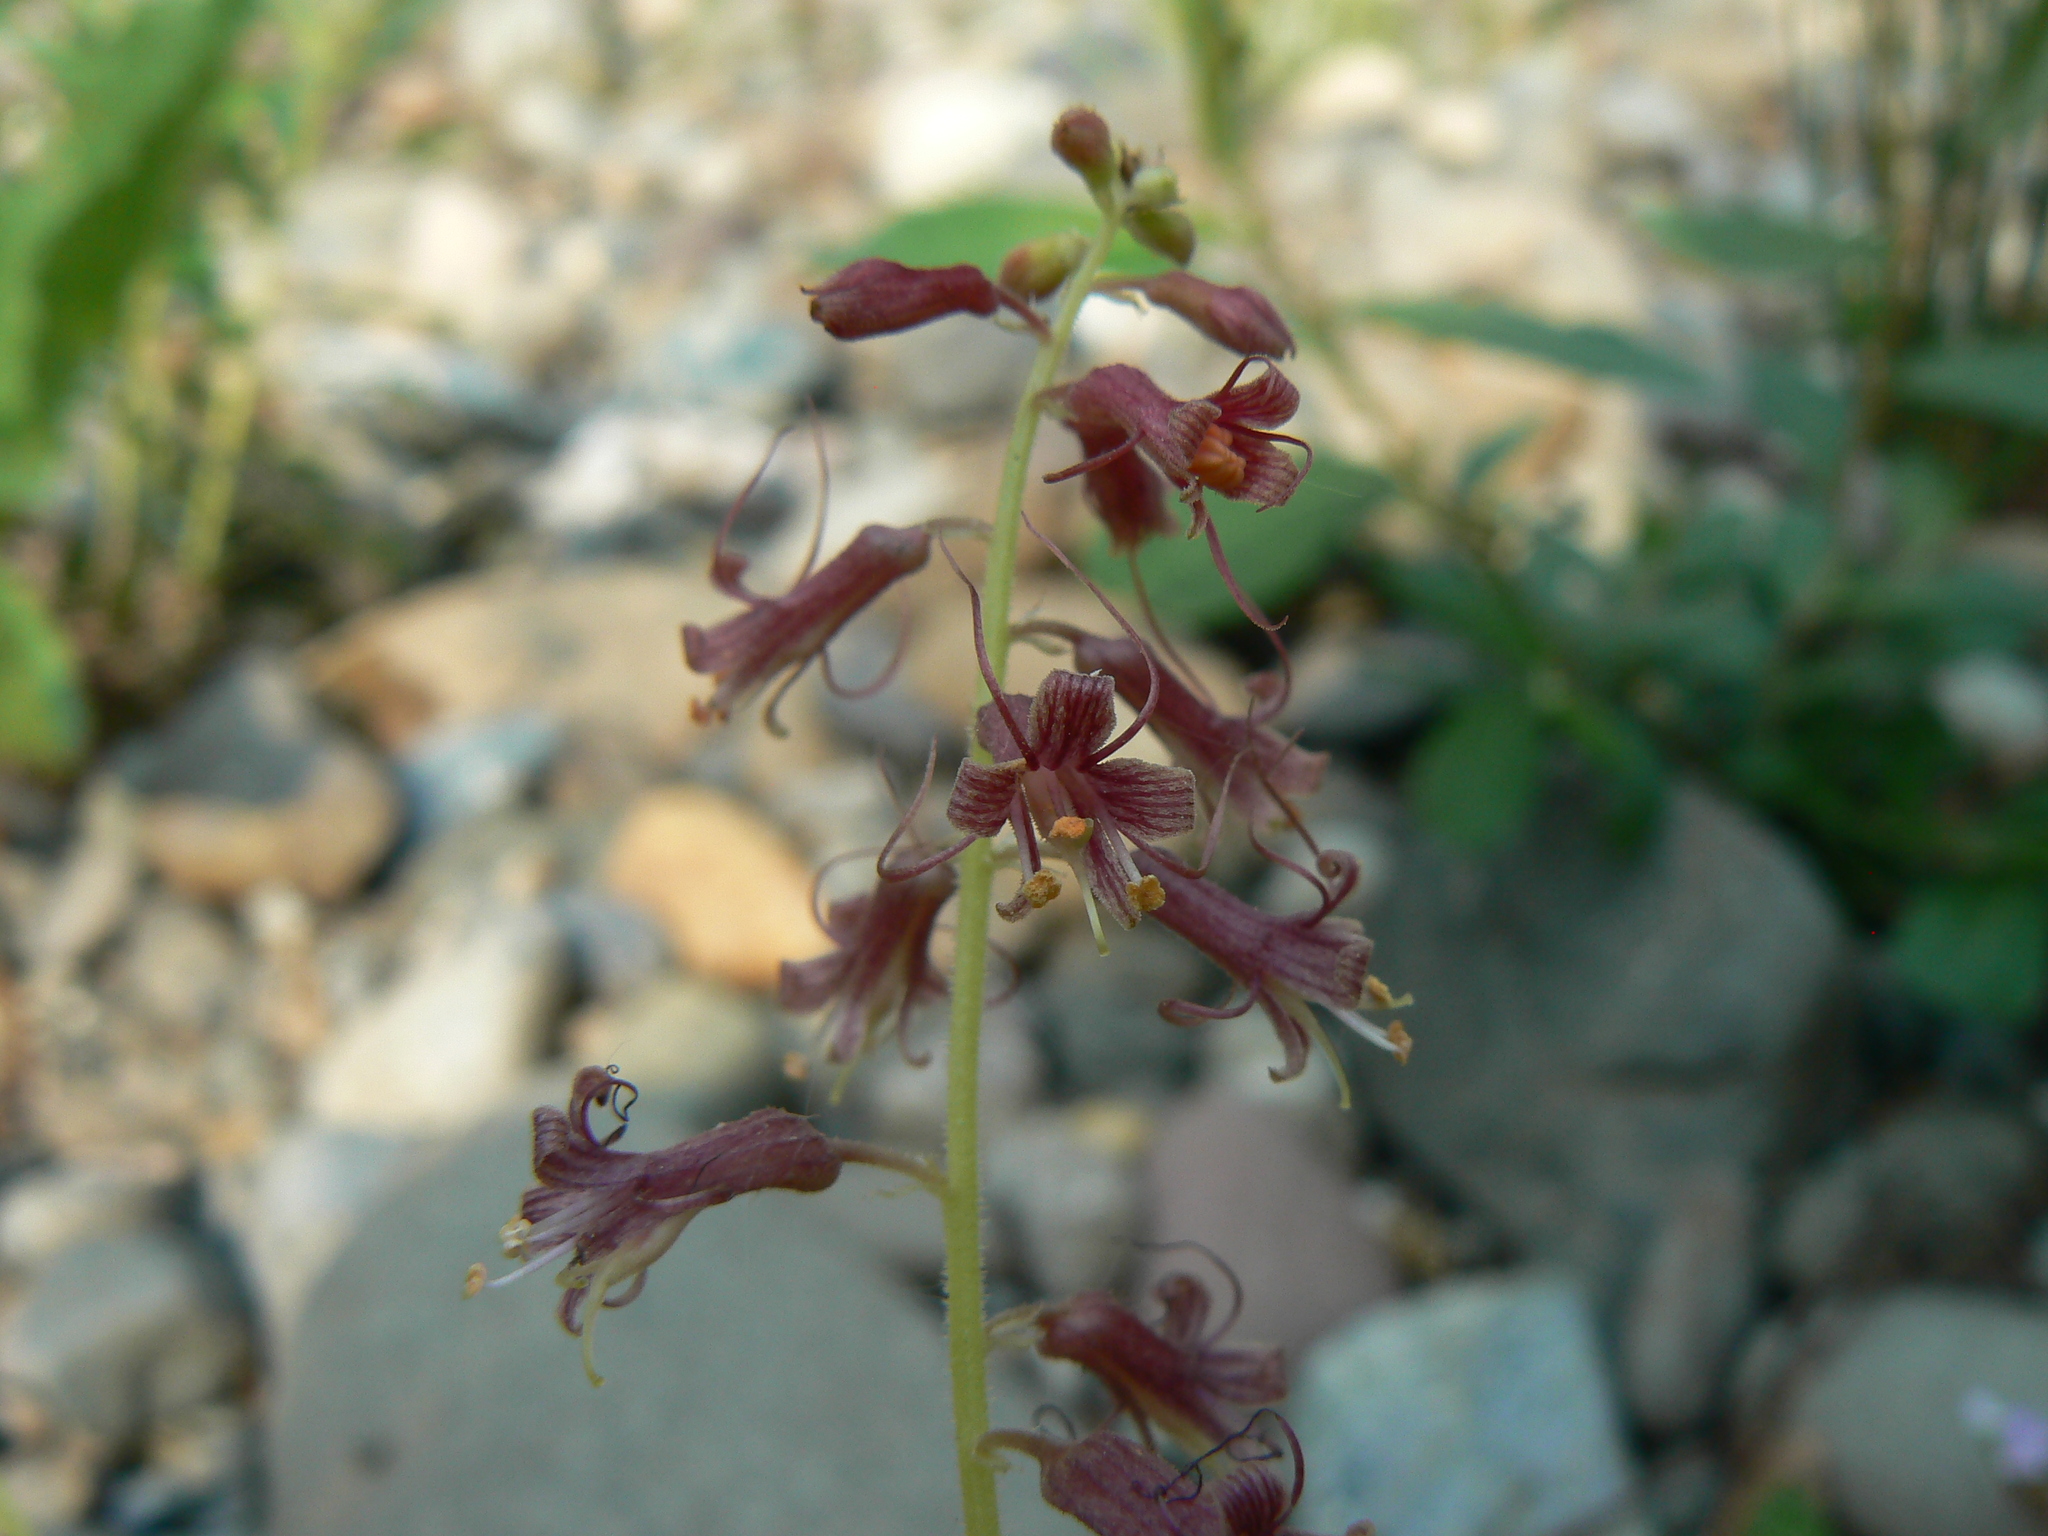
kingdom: Plantae
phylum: Tracheophyta
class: Magnoliopsida
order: Saxifragales
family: Saxifragaceae
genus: Tolmiea
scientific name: Tolmiea menziesii
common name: Pick-a-back-plant
